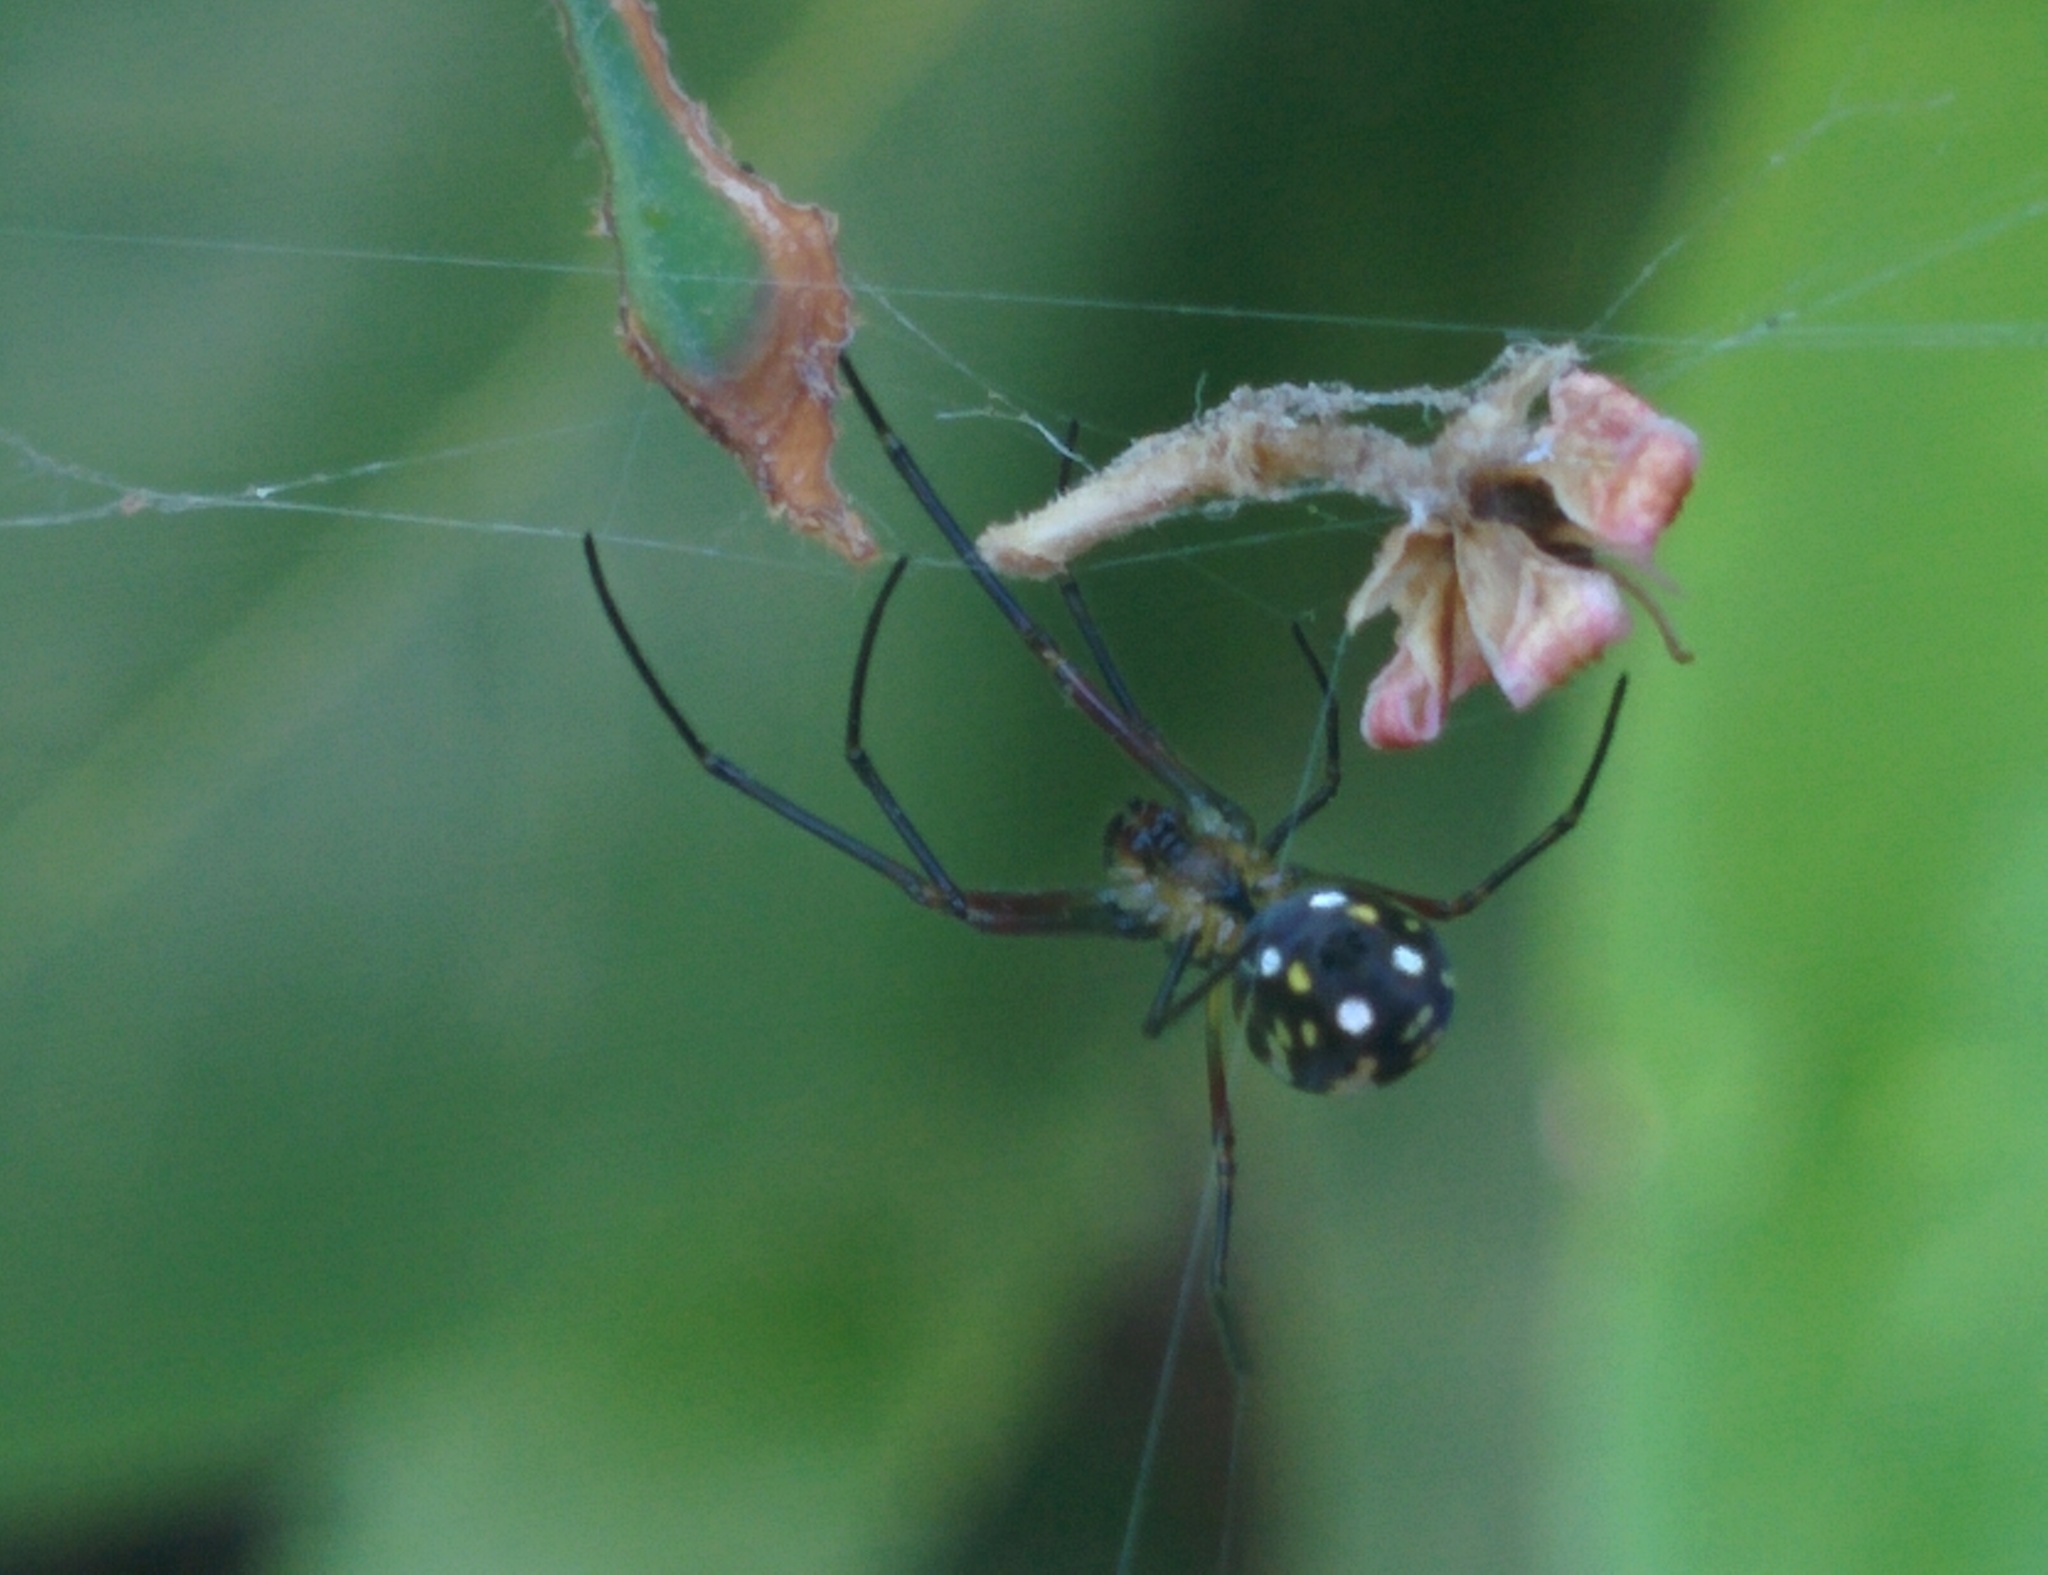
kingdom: Animalia
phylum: Arthropoda
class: Arachnida
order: Araneae
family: Tetragnathidae
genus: Leucauge
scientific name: Leucauge argyra
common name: Longjawed orb weavers
